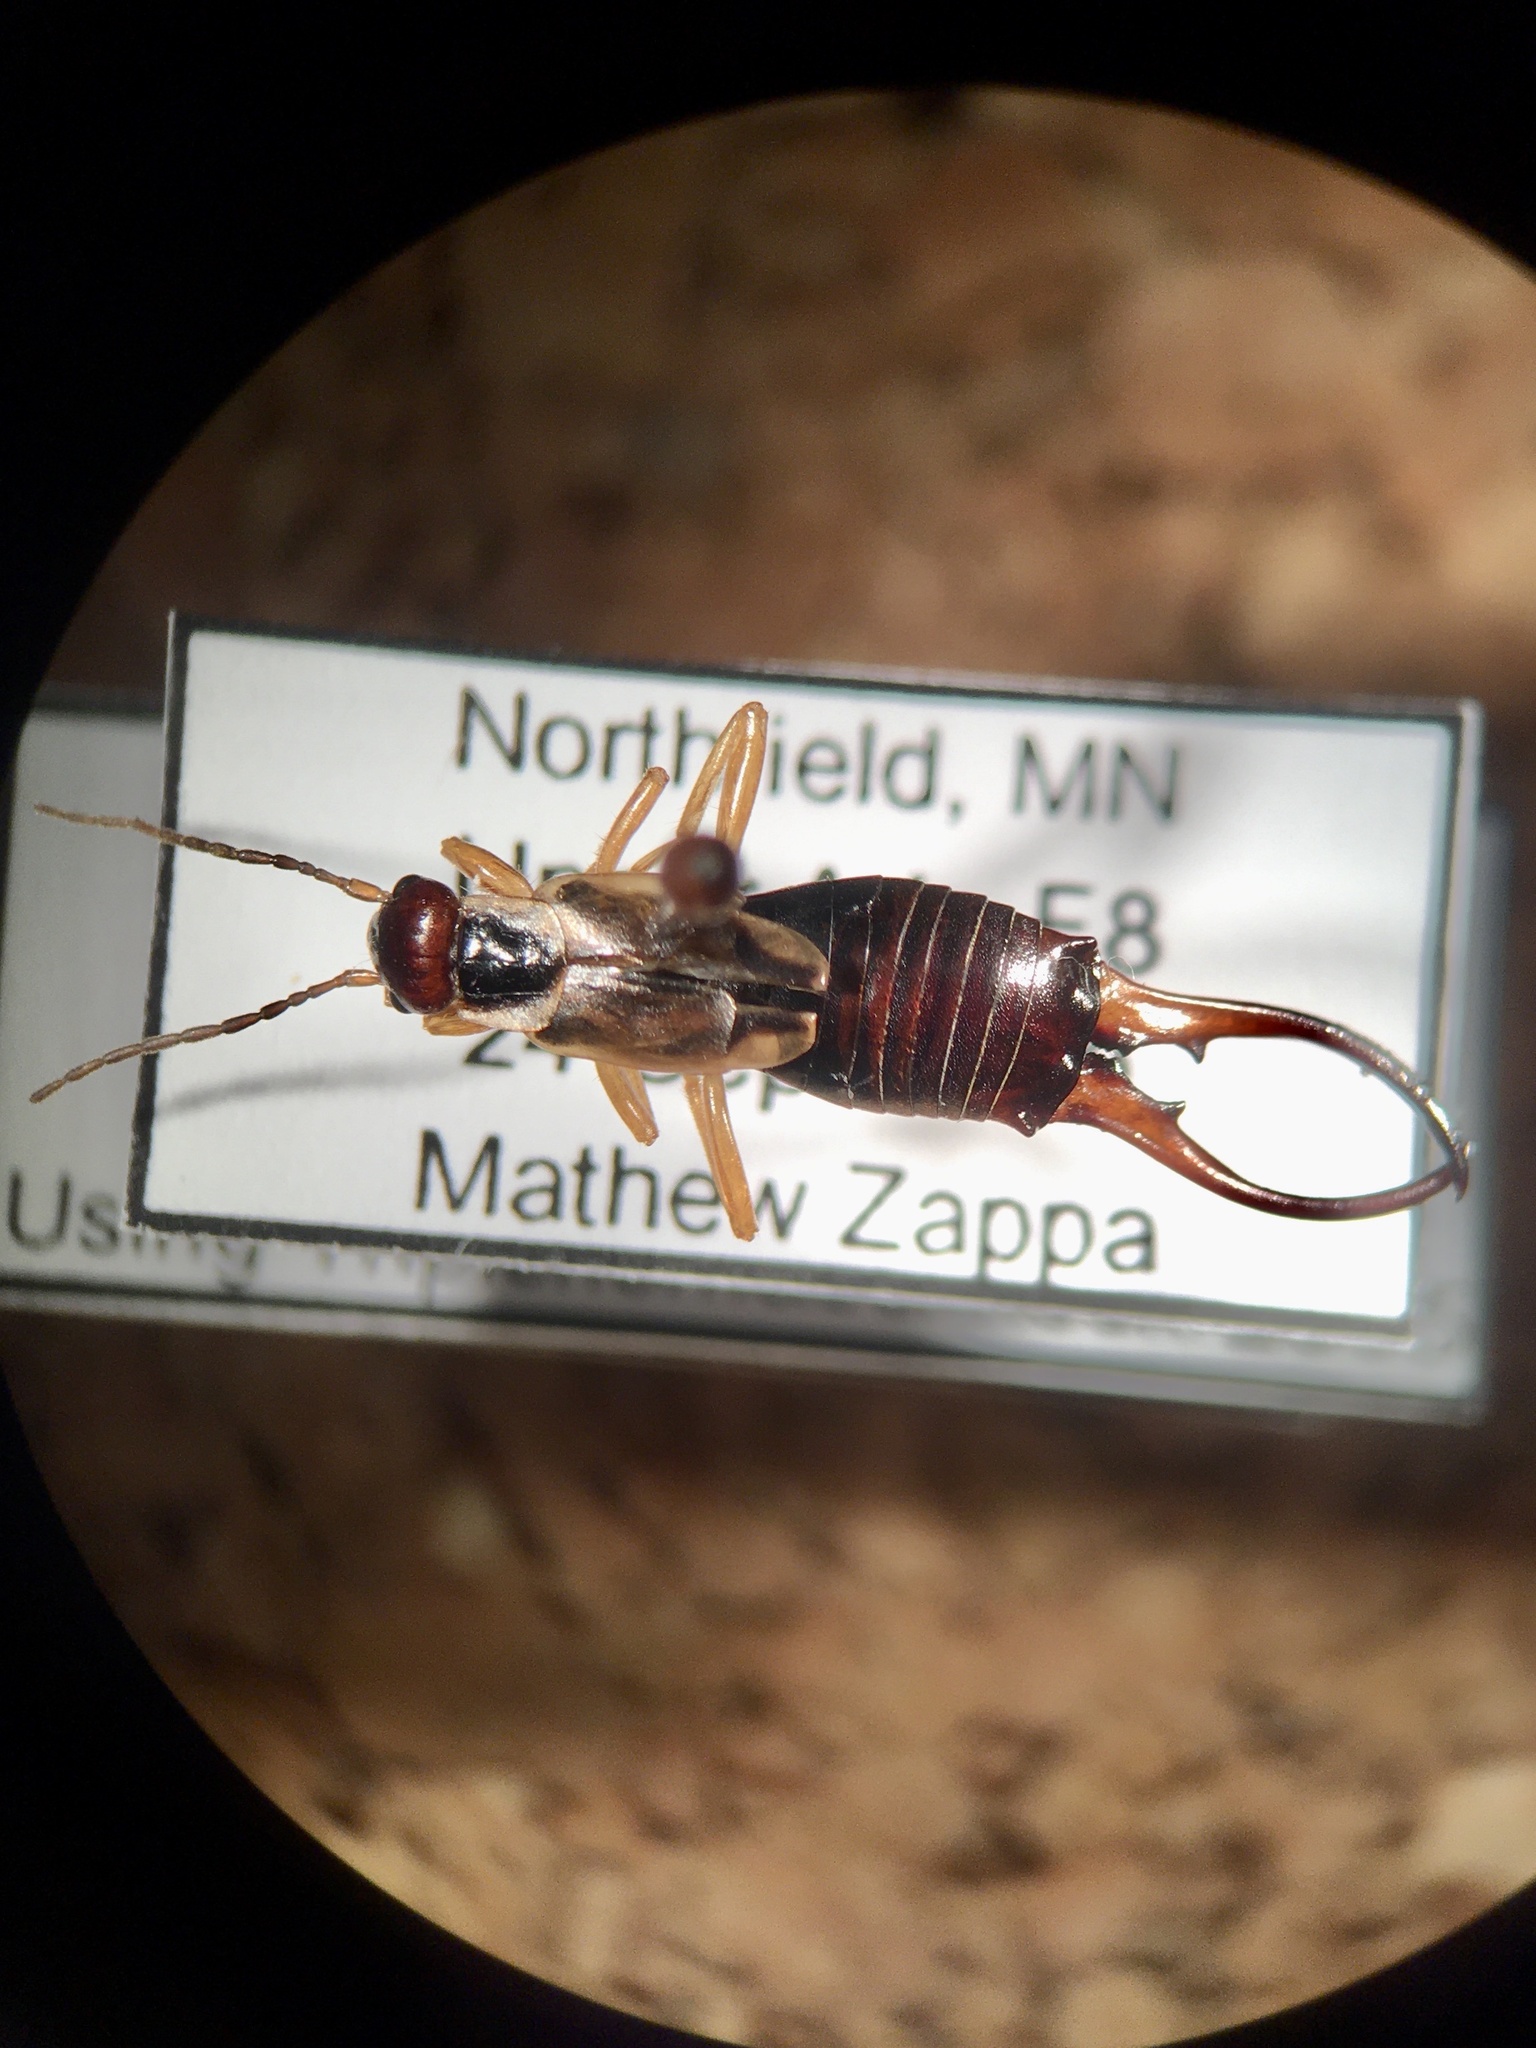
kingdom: Animalia
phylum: Arthropoda
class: Insecta
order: Dermaptera
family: Forficulidae
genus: Forficula
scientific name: Forficula
